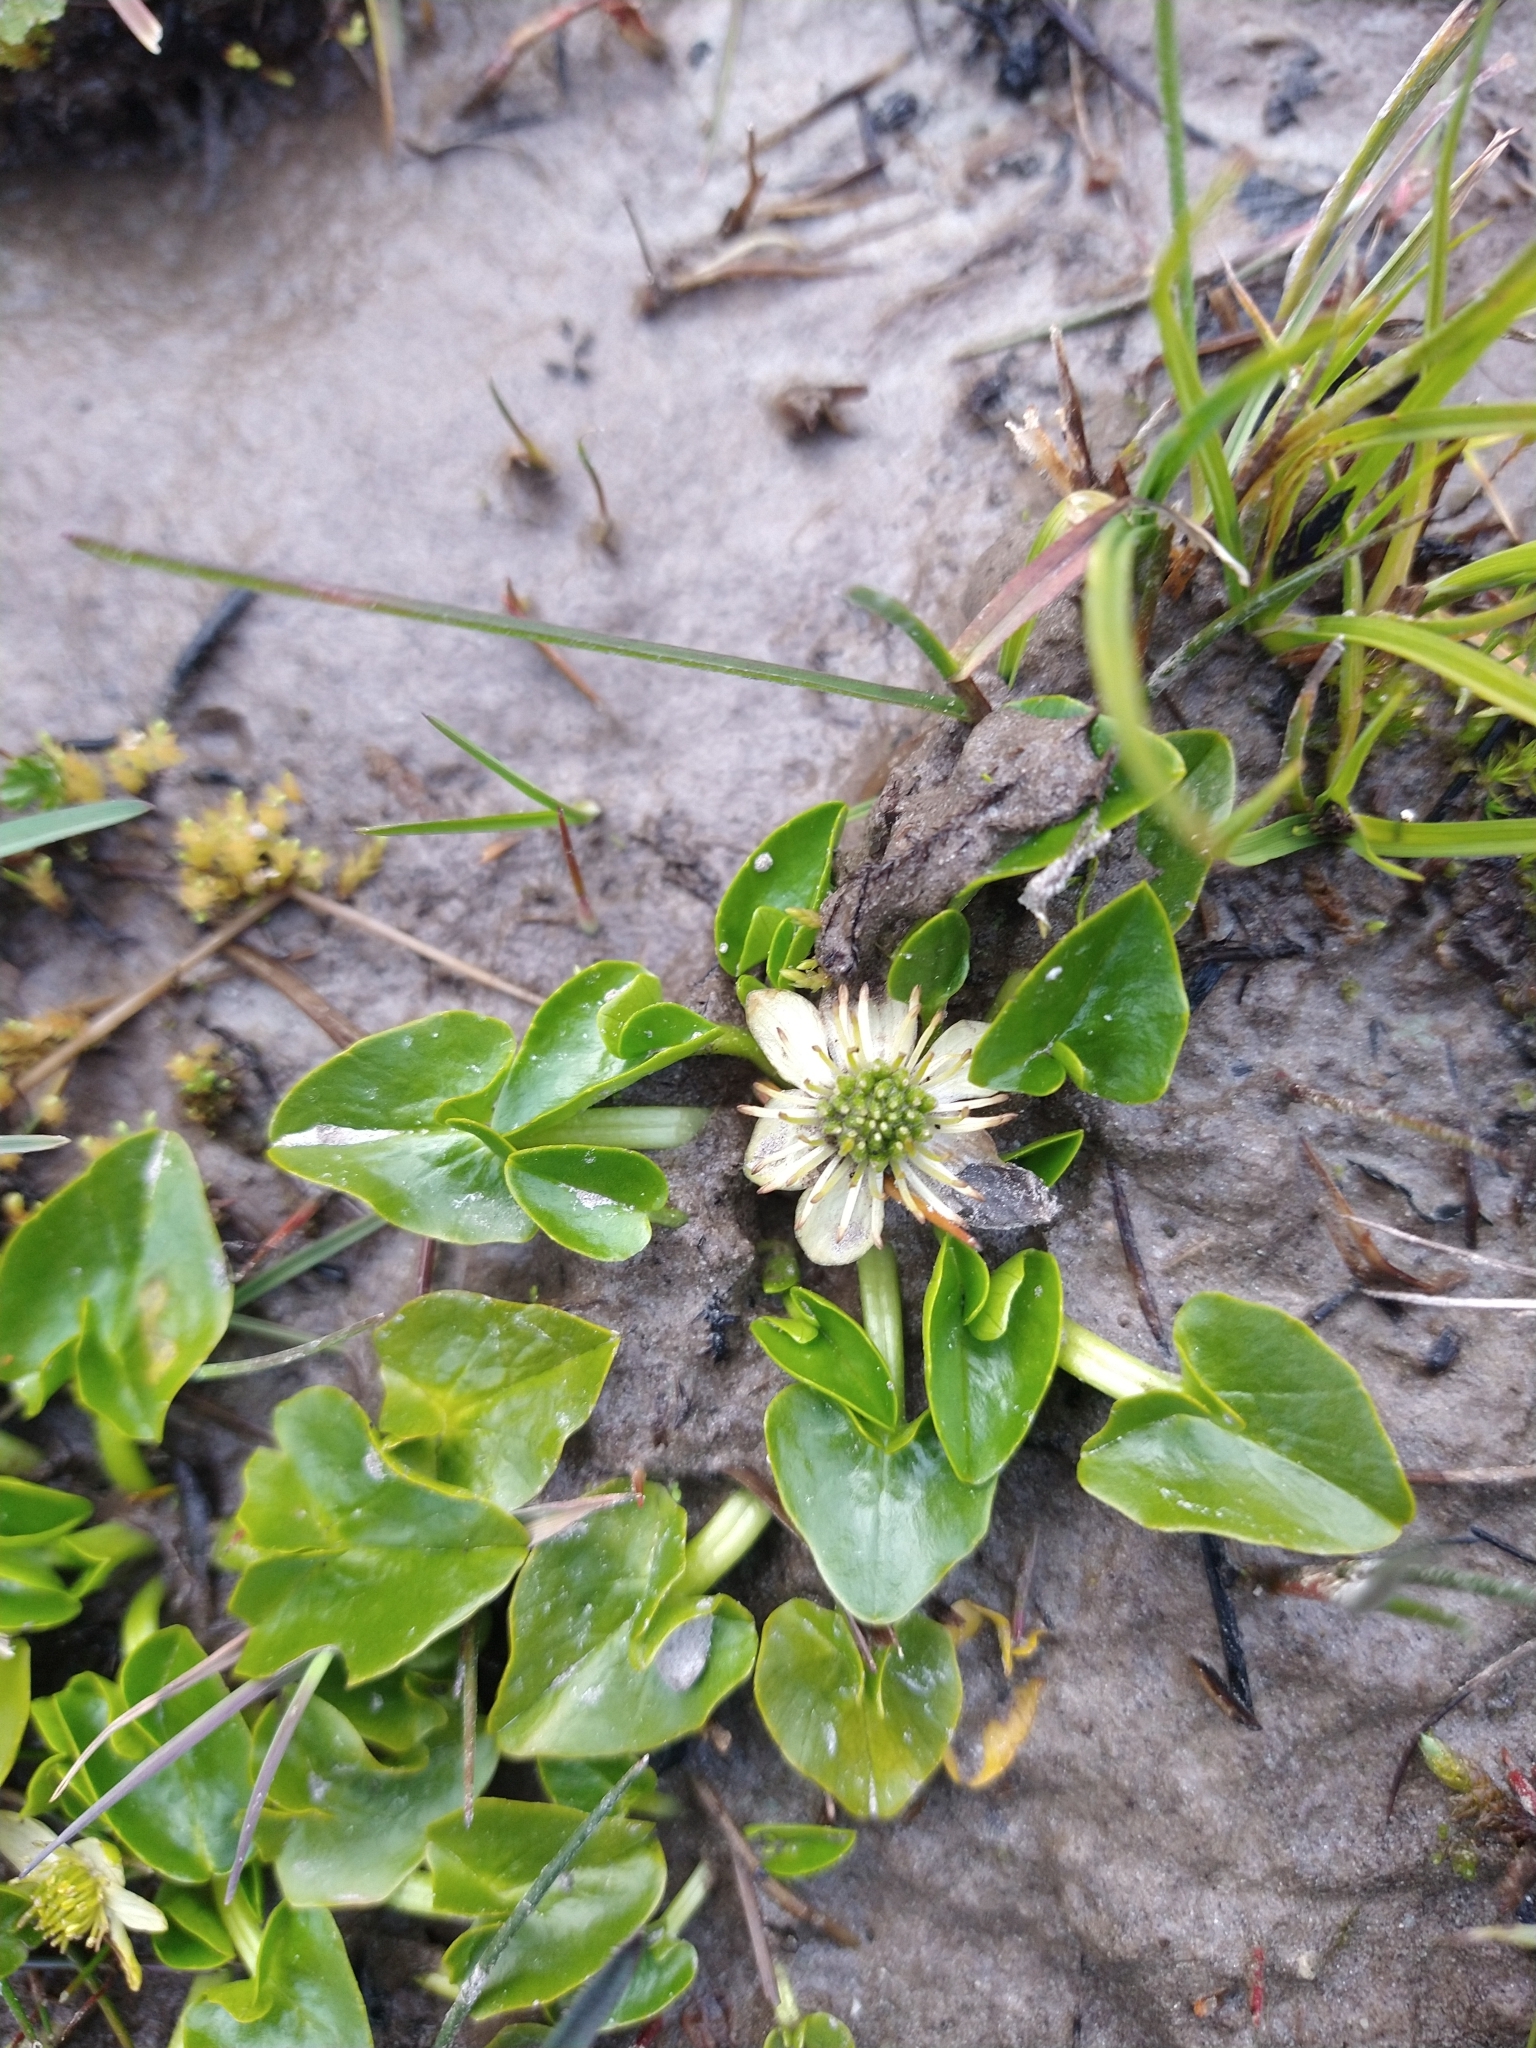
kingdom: Plantae
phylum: Tracheophyta
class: Magnoliopsida
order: Ranunculales
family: Ranunculaceae
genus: Caltha
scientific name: Caltha sagittata
